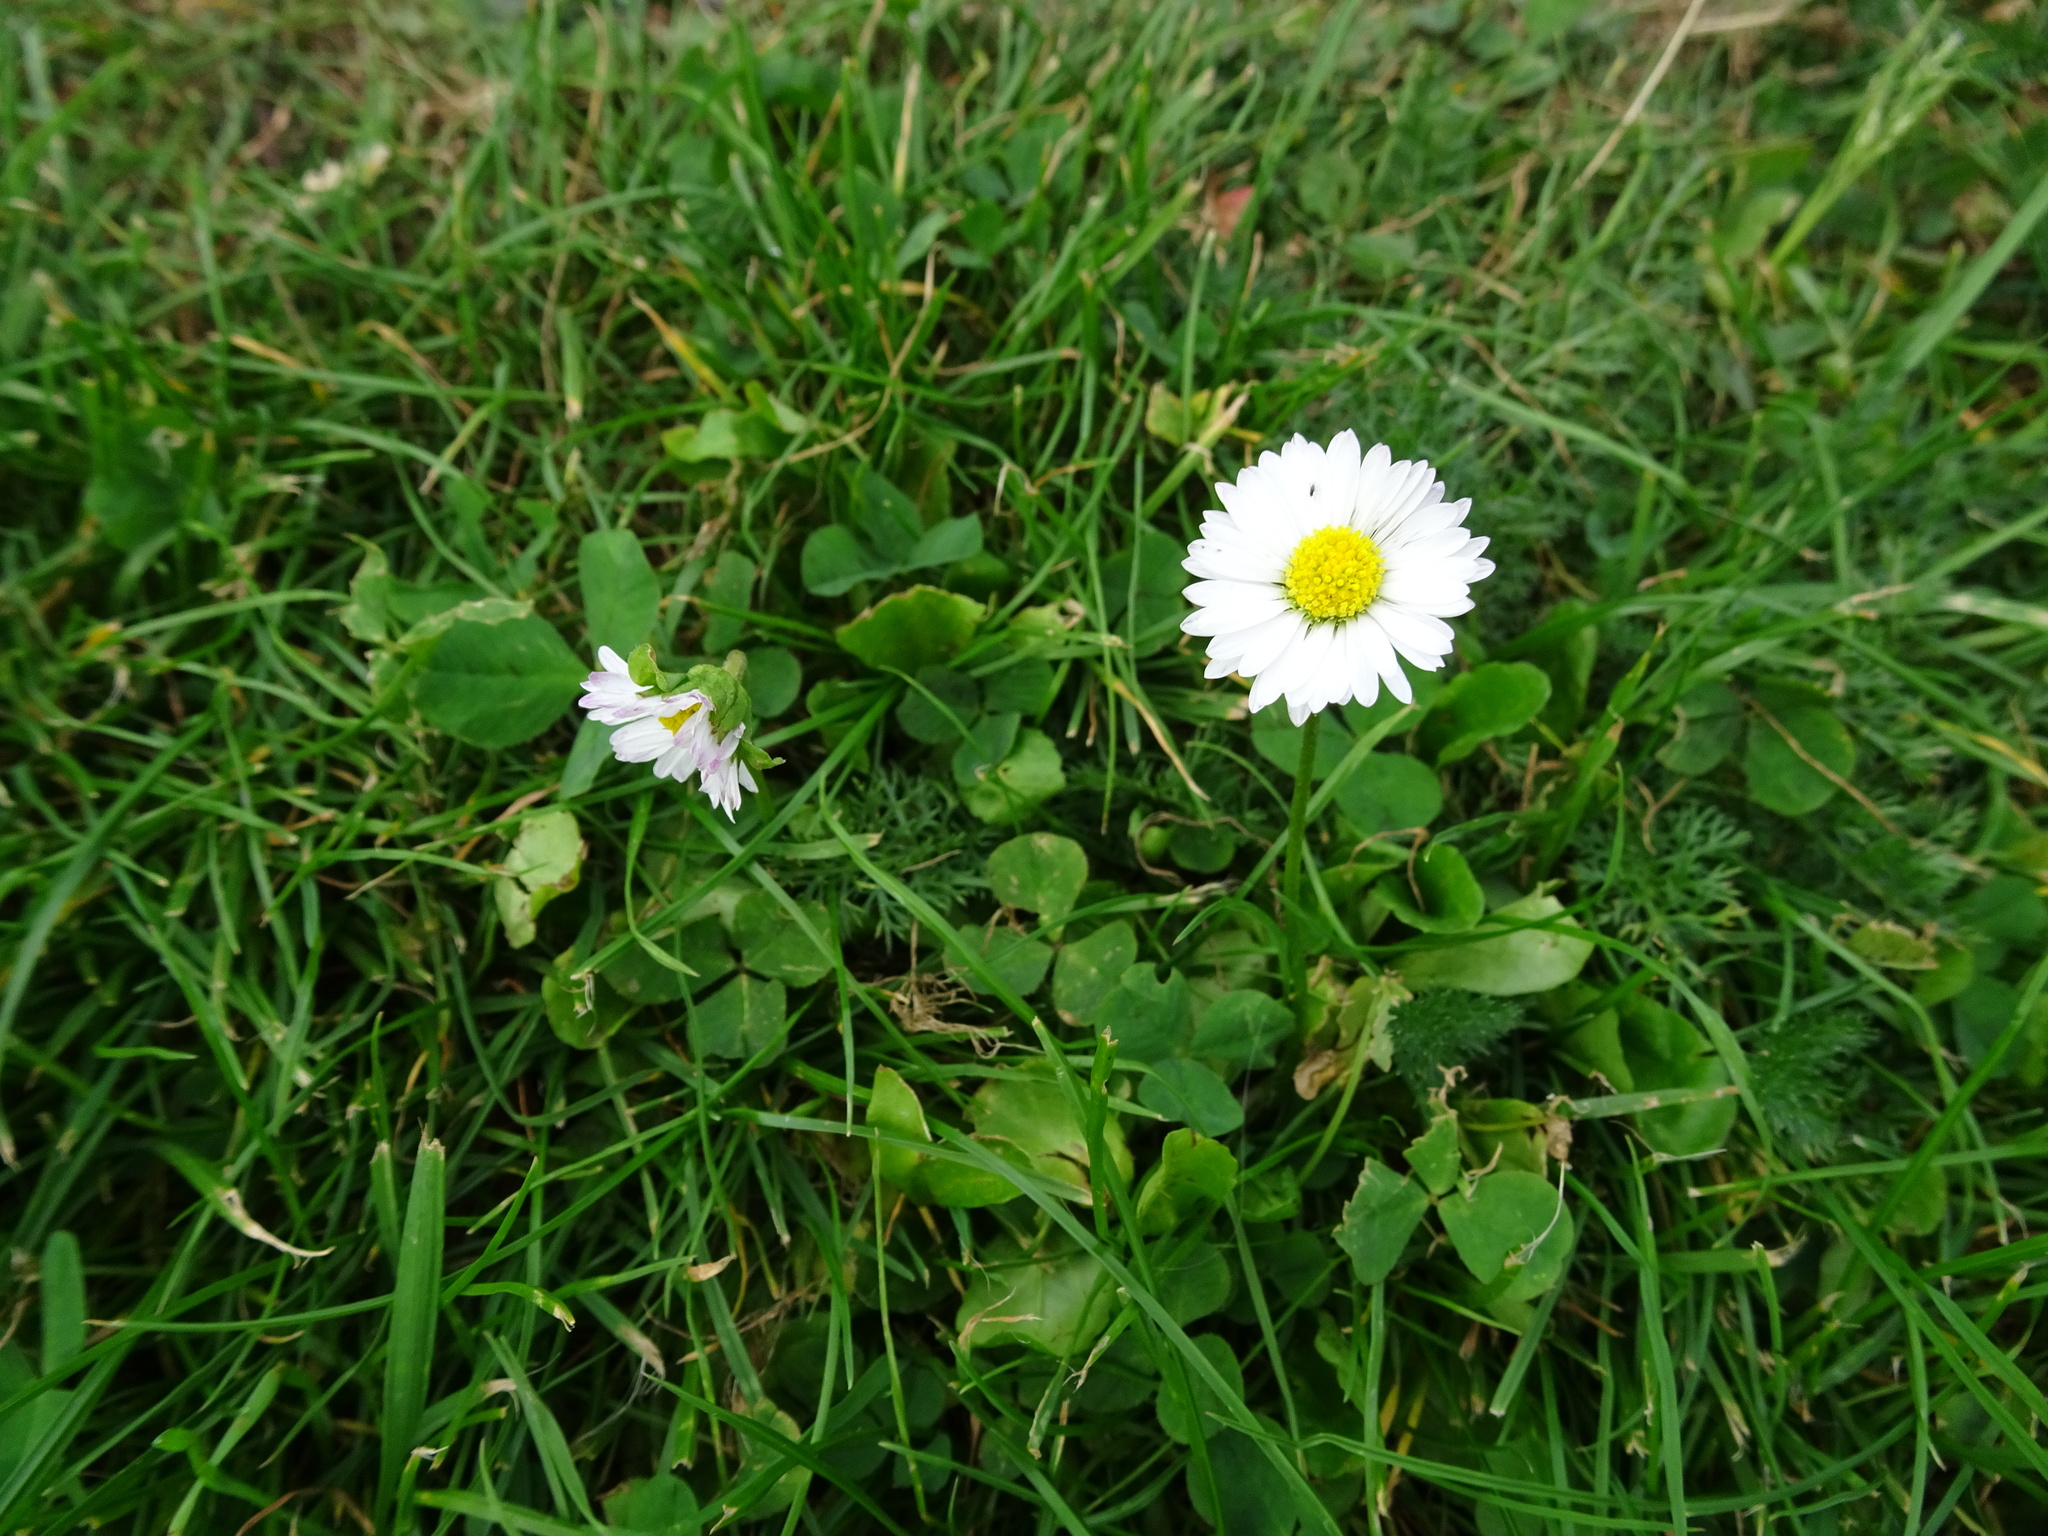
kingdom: Plantae
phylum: Tracheophyta
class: Magnoliopsida
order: Asterales
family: Asteraceae
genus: Bellis
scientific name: Bellis perennis
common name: Lawndaisy
